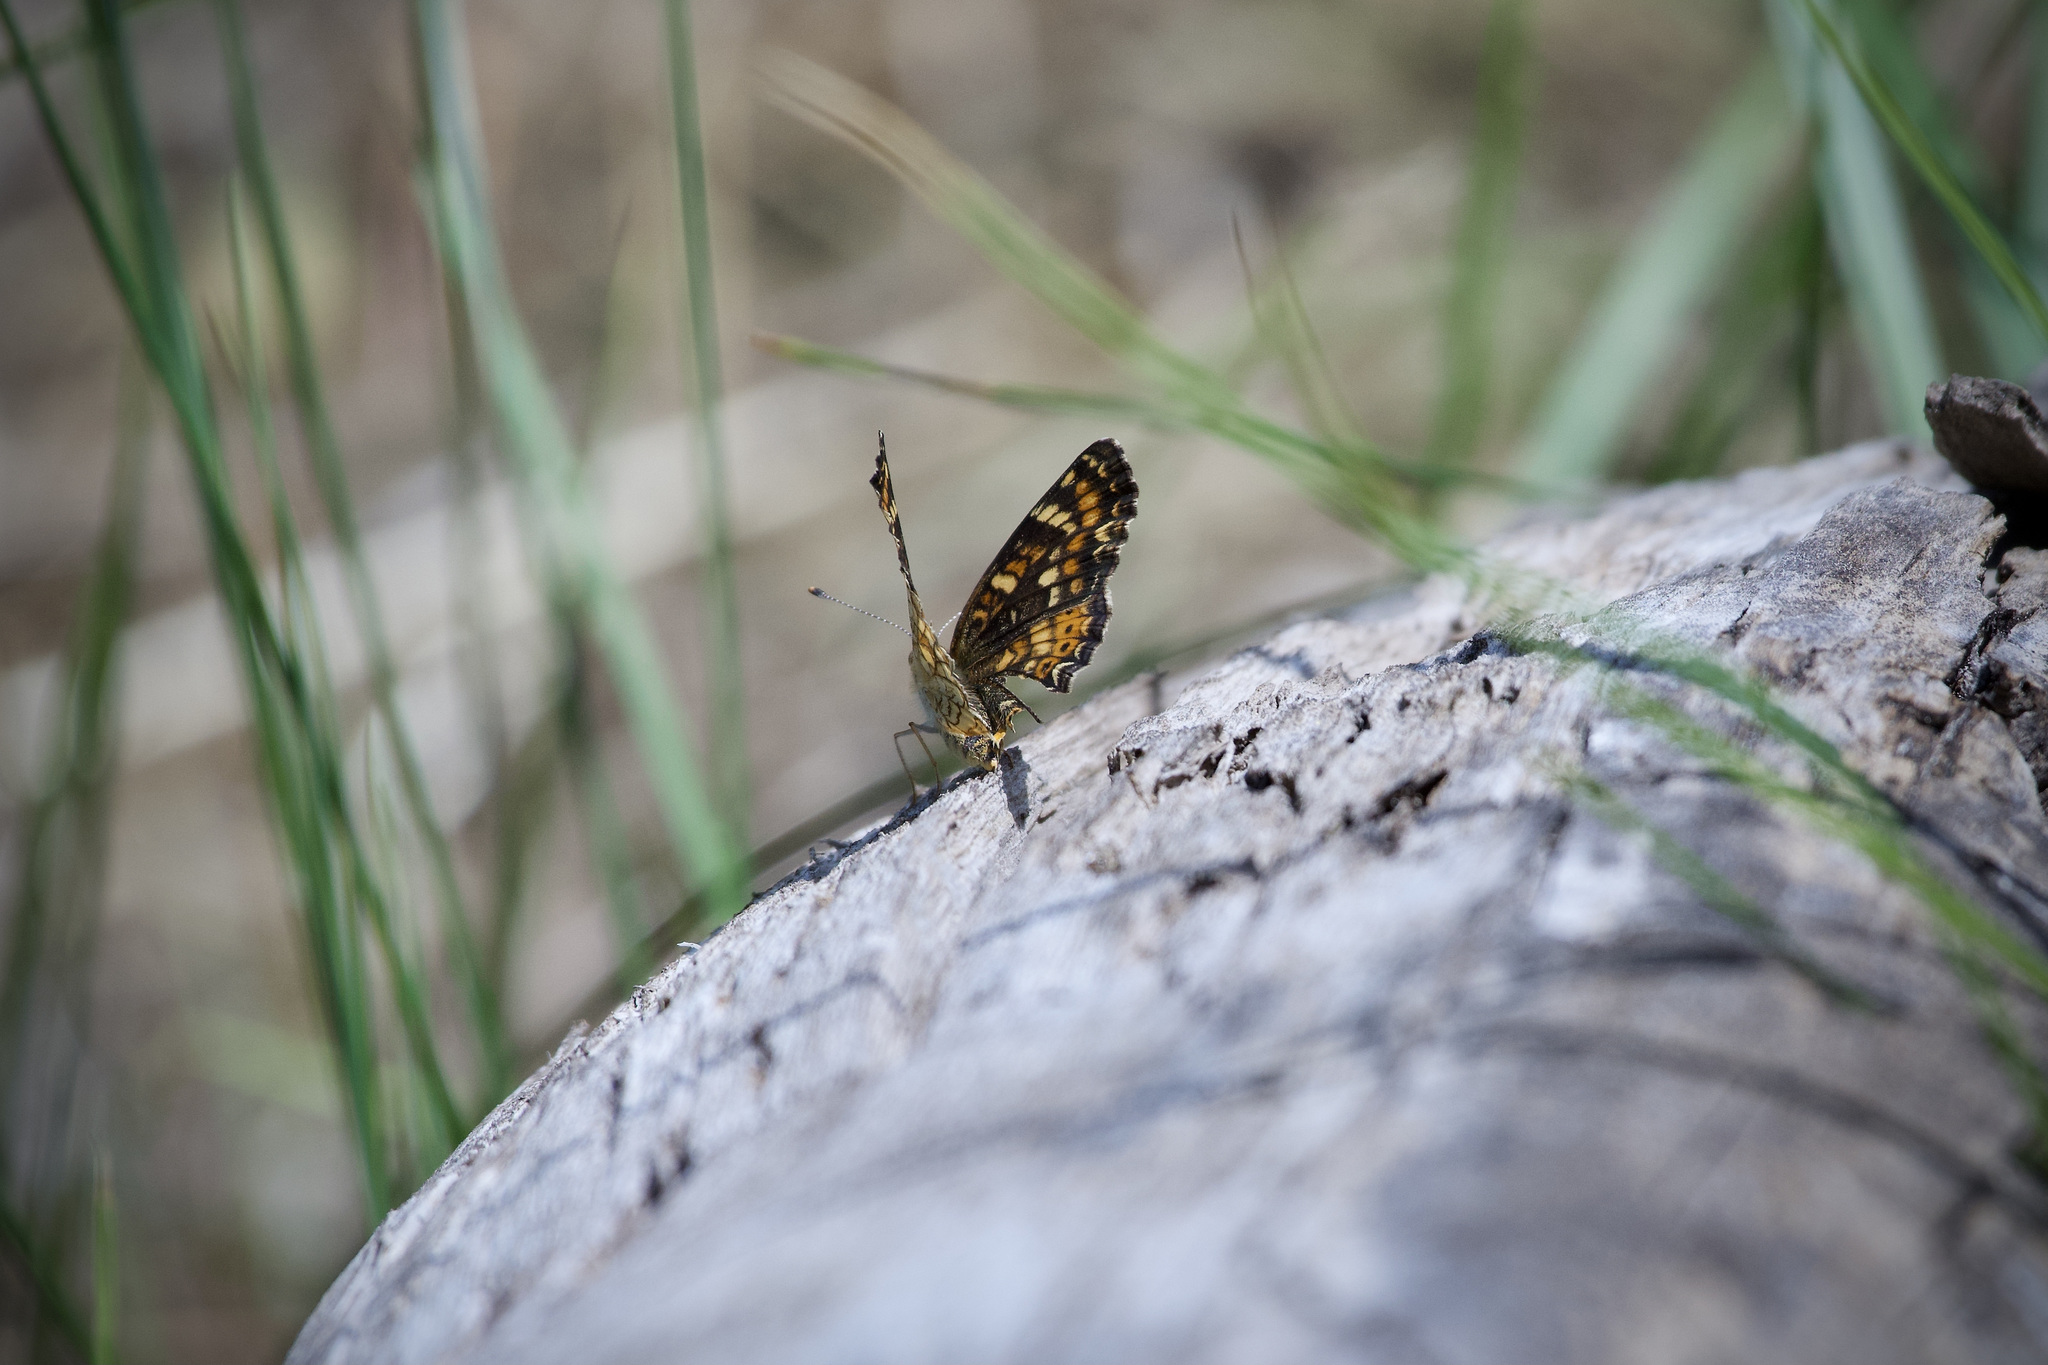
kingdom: Animalia
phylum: Arthropoda
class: Insecta
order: Lepidoptera
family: Nymphalidae
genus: Phyciodes
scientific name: Phyciodes tharos
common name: Pearl crescent
